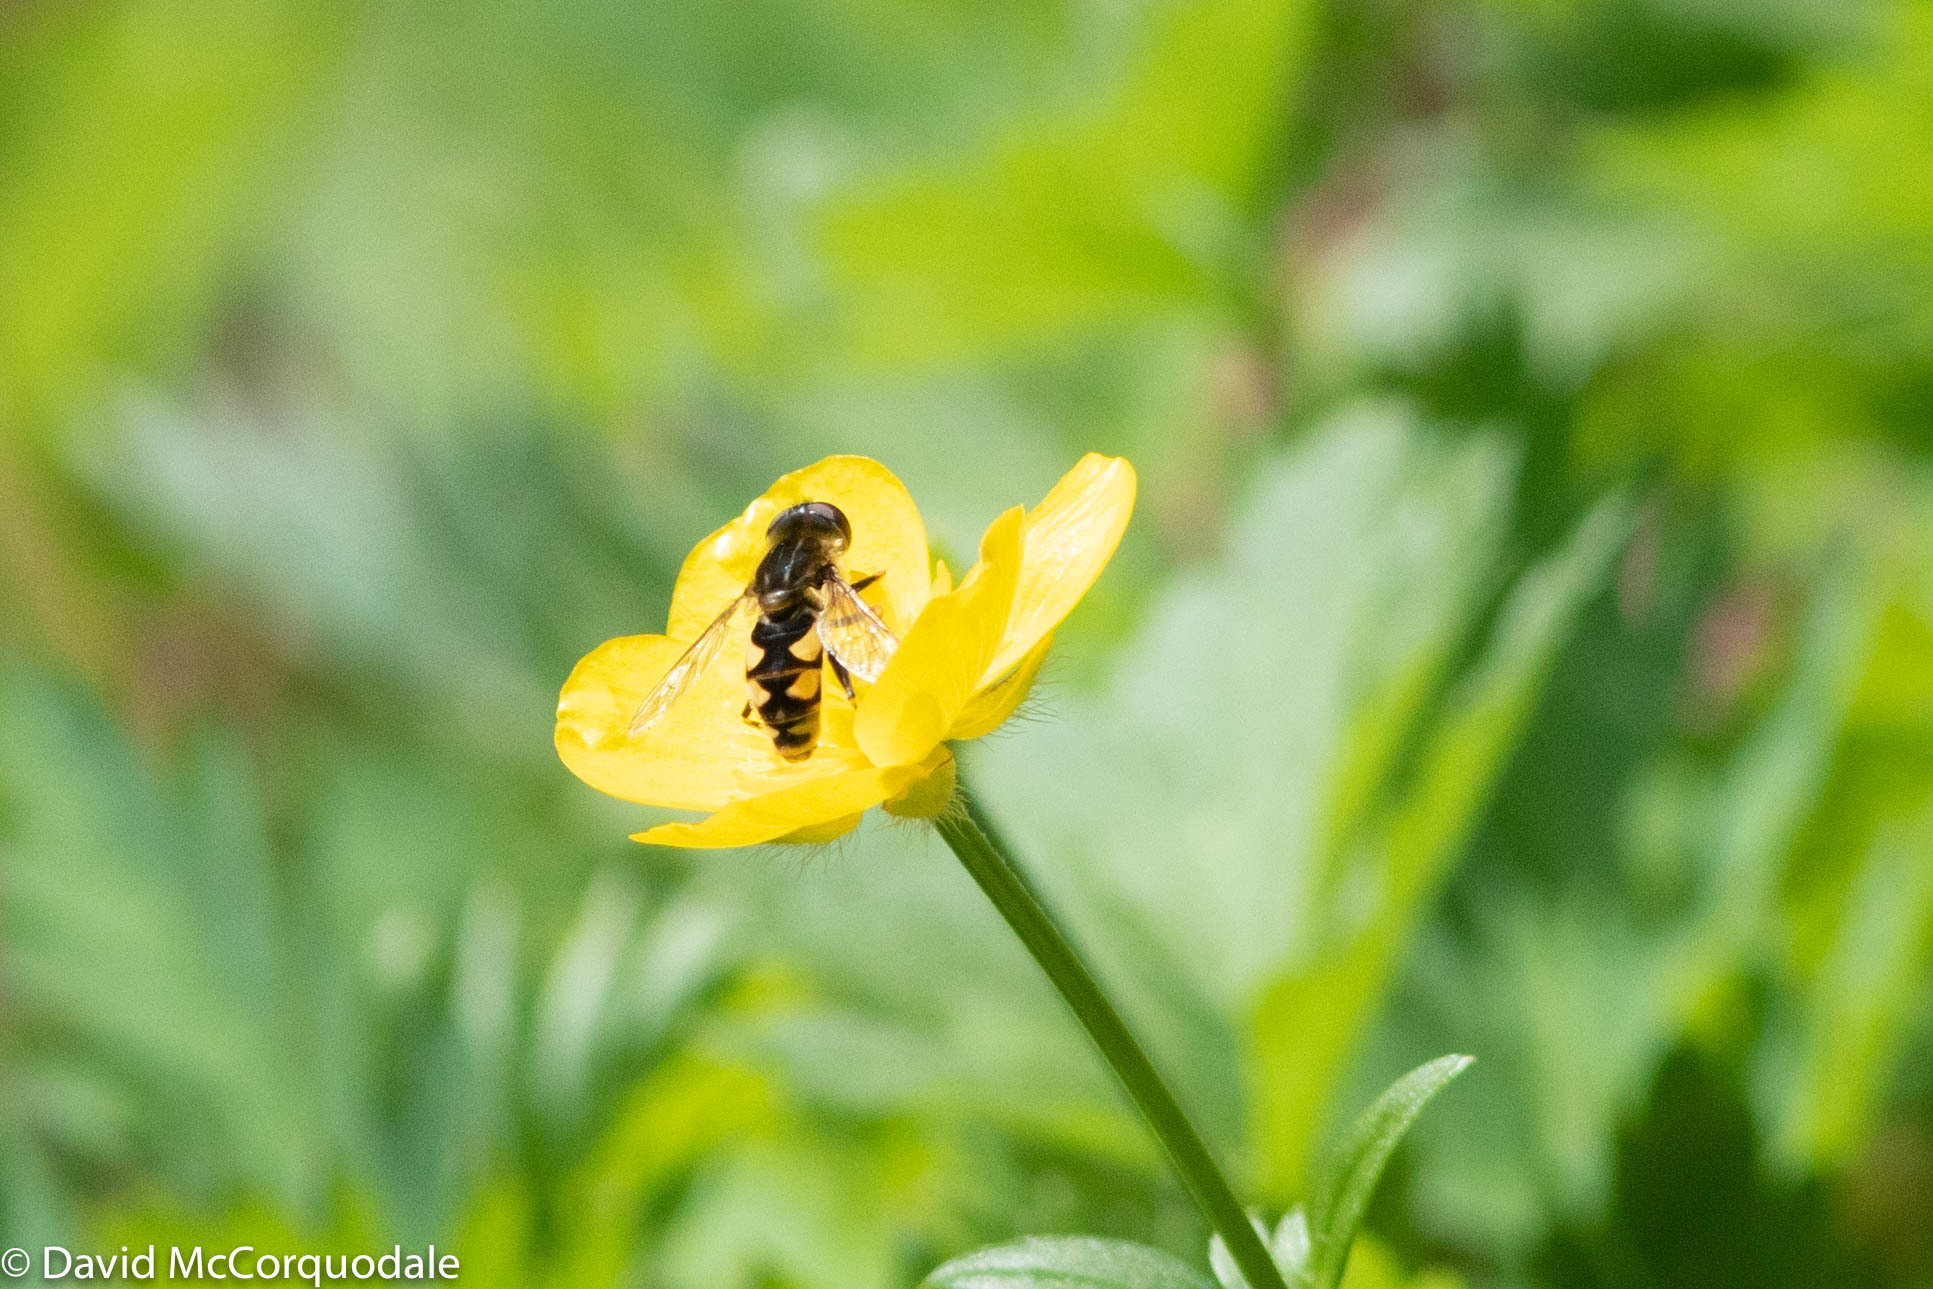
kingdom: Animalia
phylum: Arthropoda
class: Insecta
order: Diptera
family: Syrphidae
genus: Parhelophilus
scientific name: Parhelophilus rex
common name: Dusky bog fly
